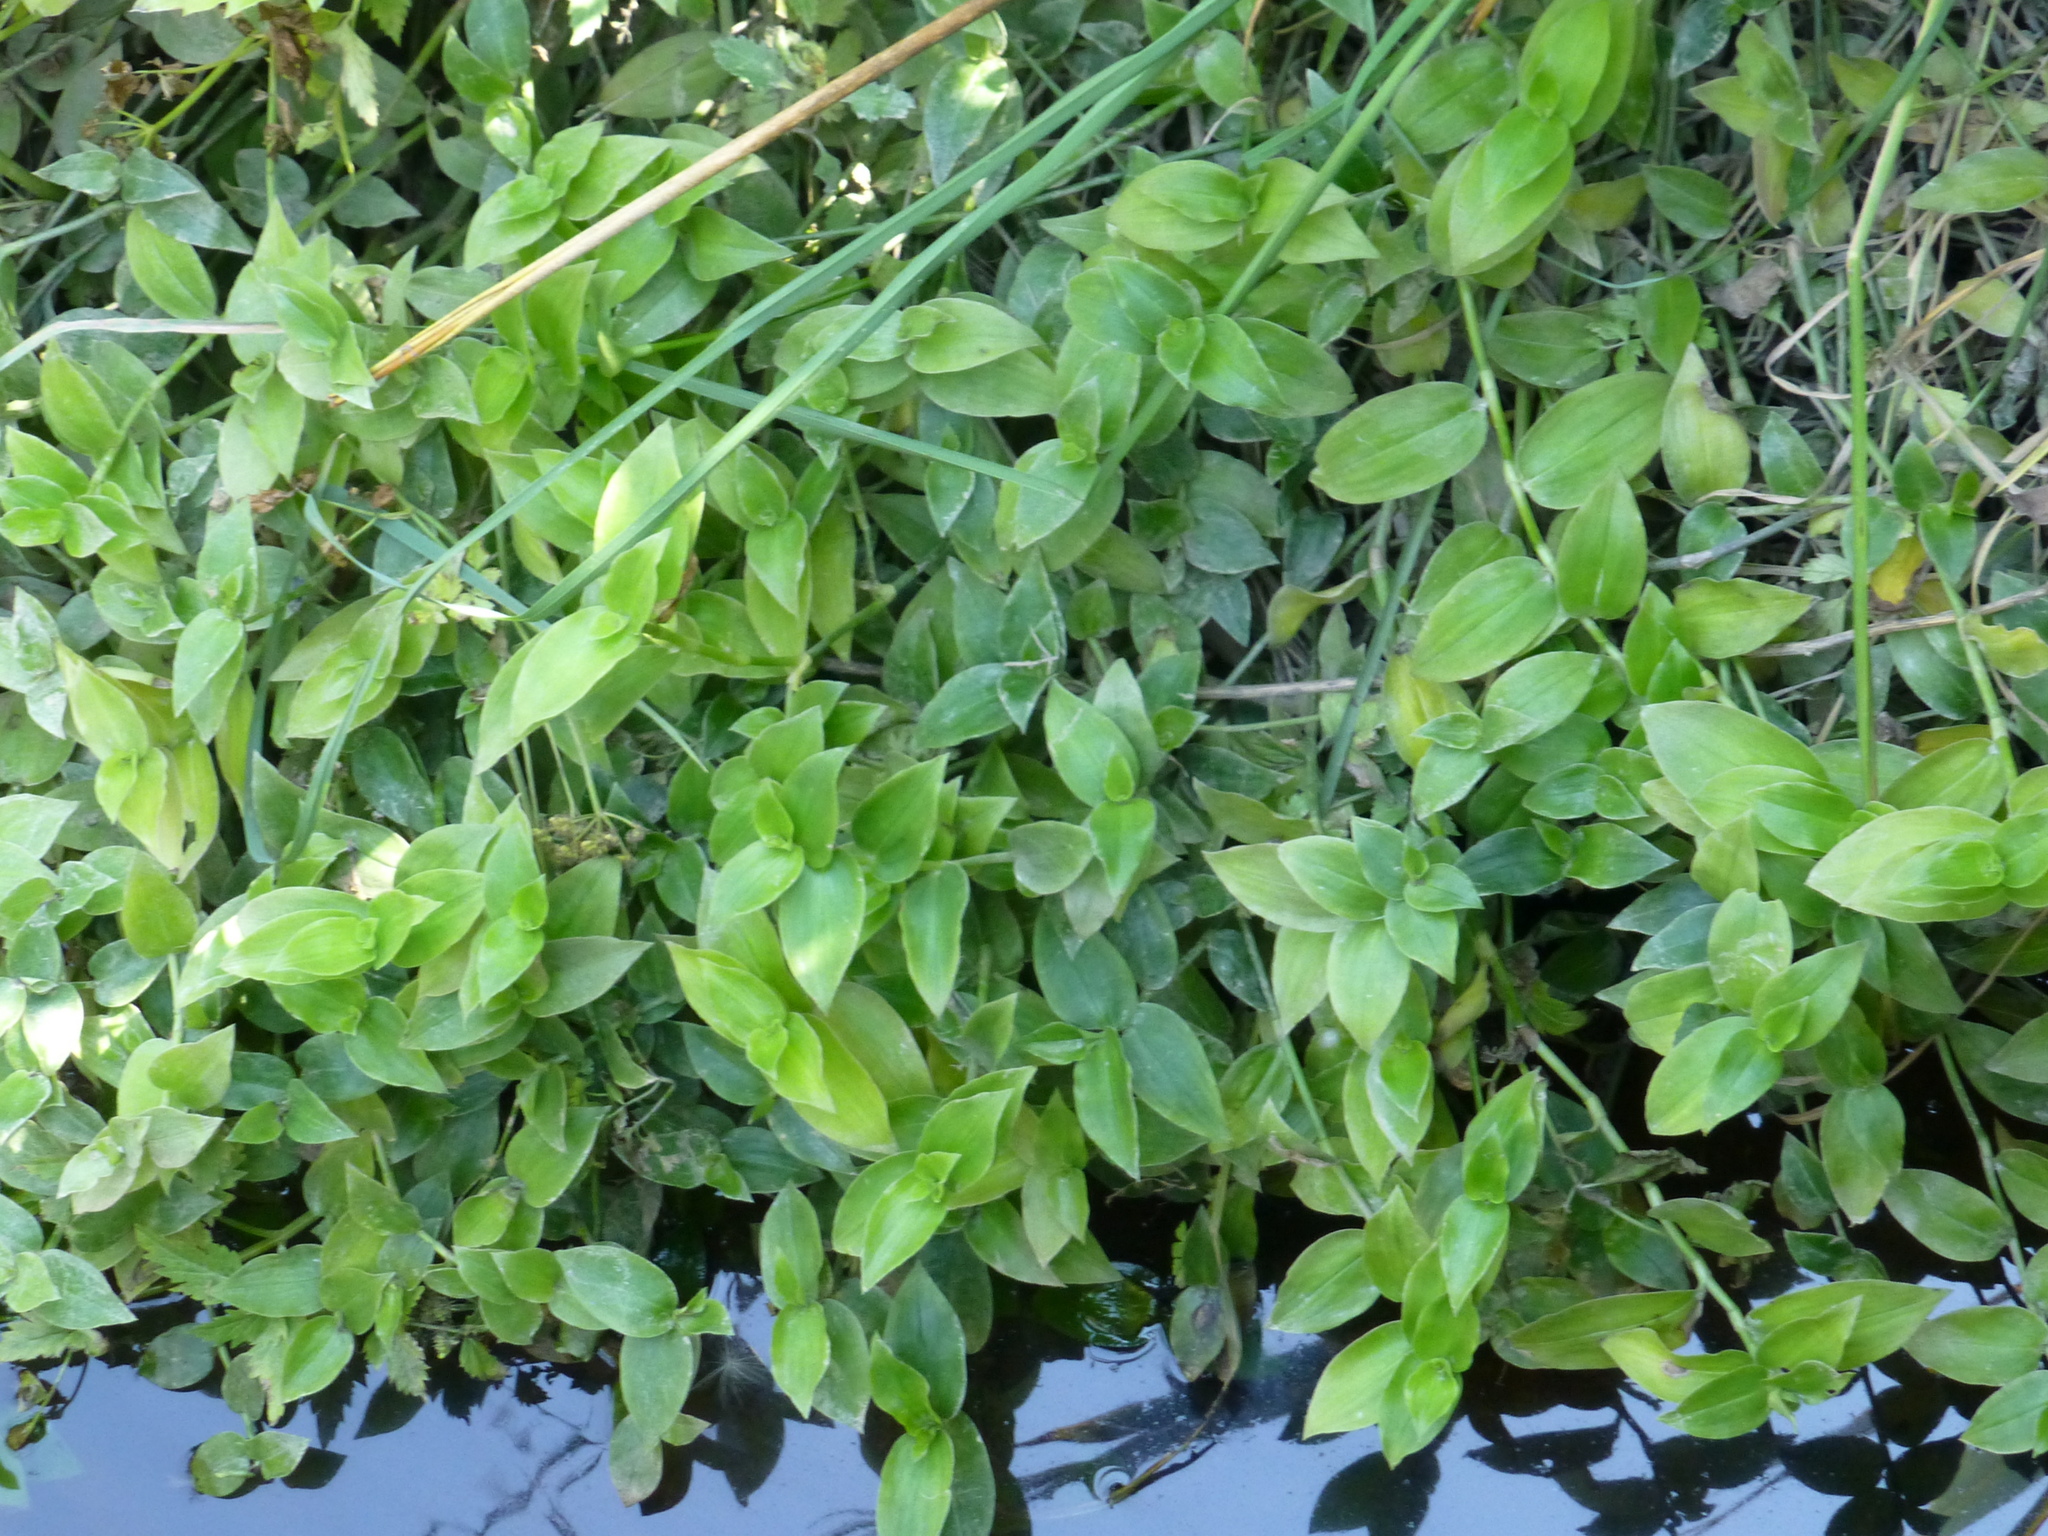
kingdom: Plantae
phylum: Tracheophyta
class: Liliopsida
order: Commelinales
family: Commelinaceae
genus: Tradescantia
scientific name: Tradescantia fluminensis
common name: Wandering-jew
